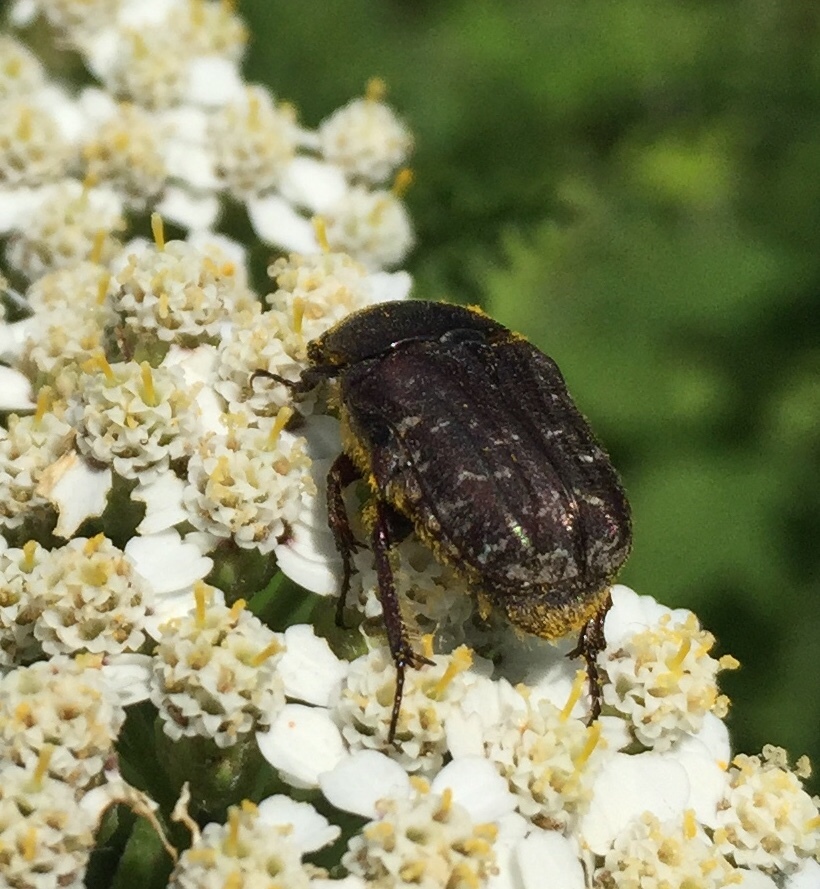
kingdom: Animalia
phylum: Arthropoda
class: Insecta
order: Coleoptera
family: Scarabaeidae
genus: Euphoria
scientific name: Euphoria sepulcralis
